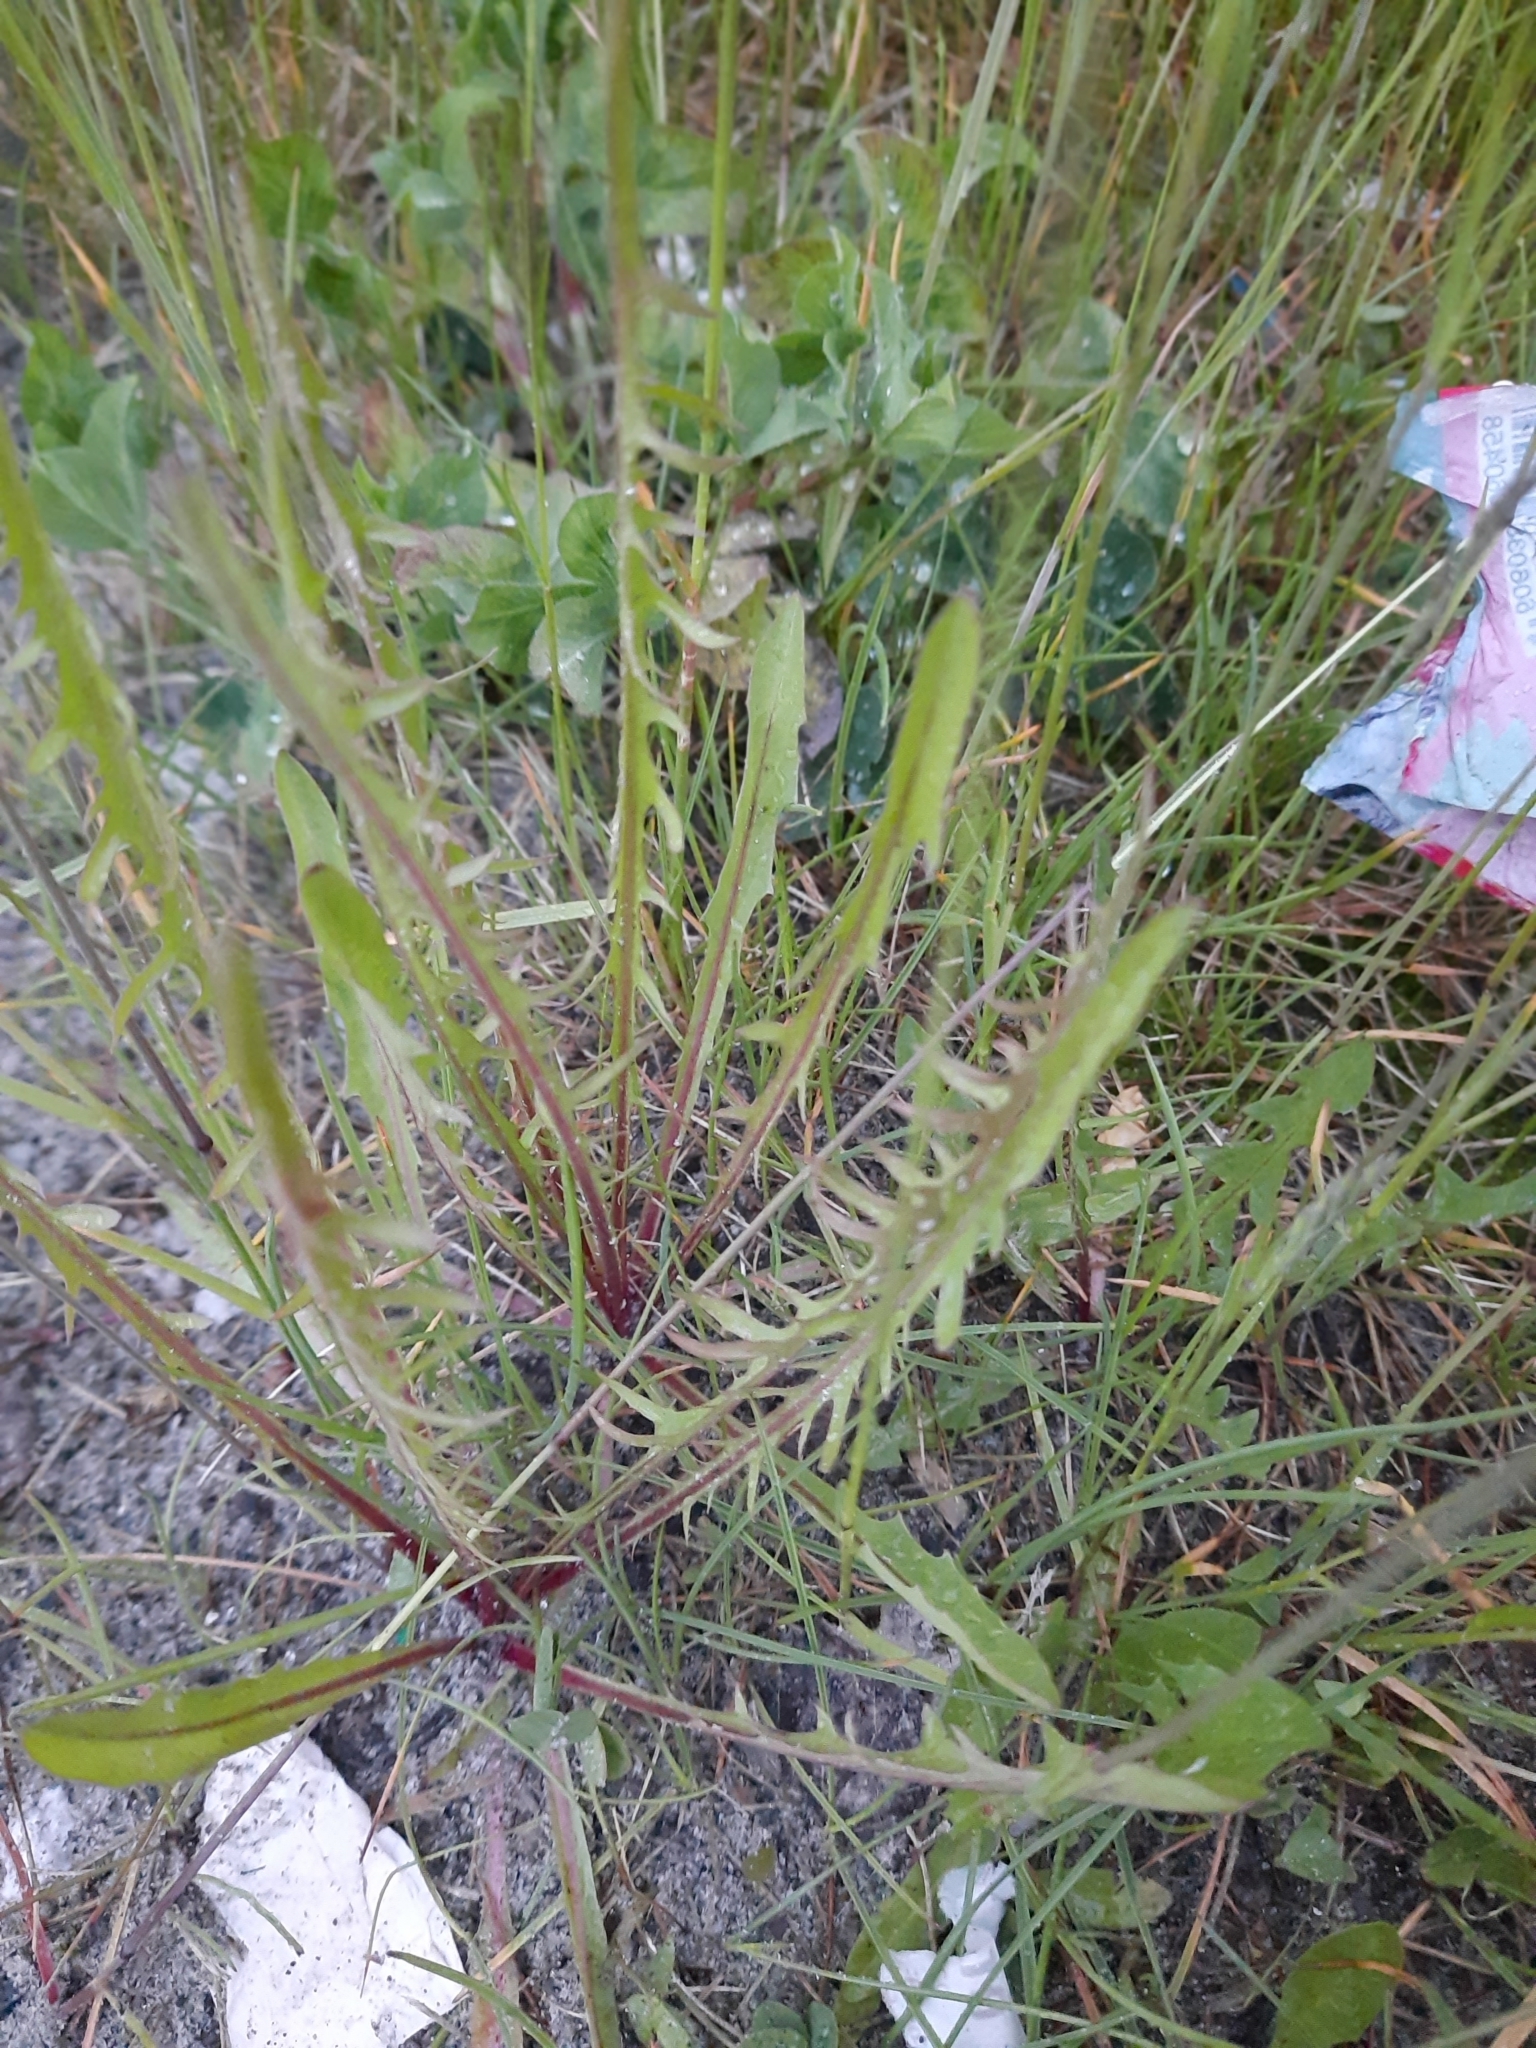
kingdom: Plantae
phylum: Tracheophyta
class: Magnoliopsida
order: Asterales
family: Asteraceae
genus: Taraxacum
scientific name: Taraxacum scariosum
